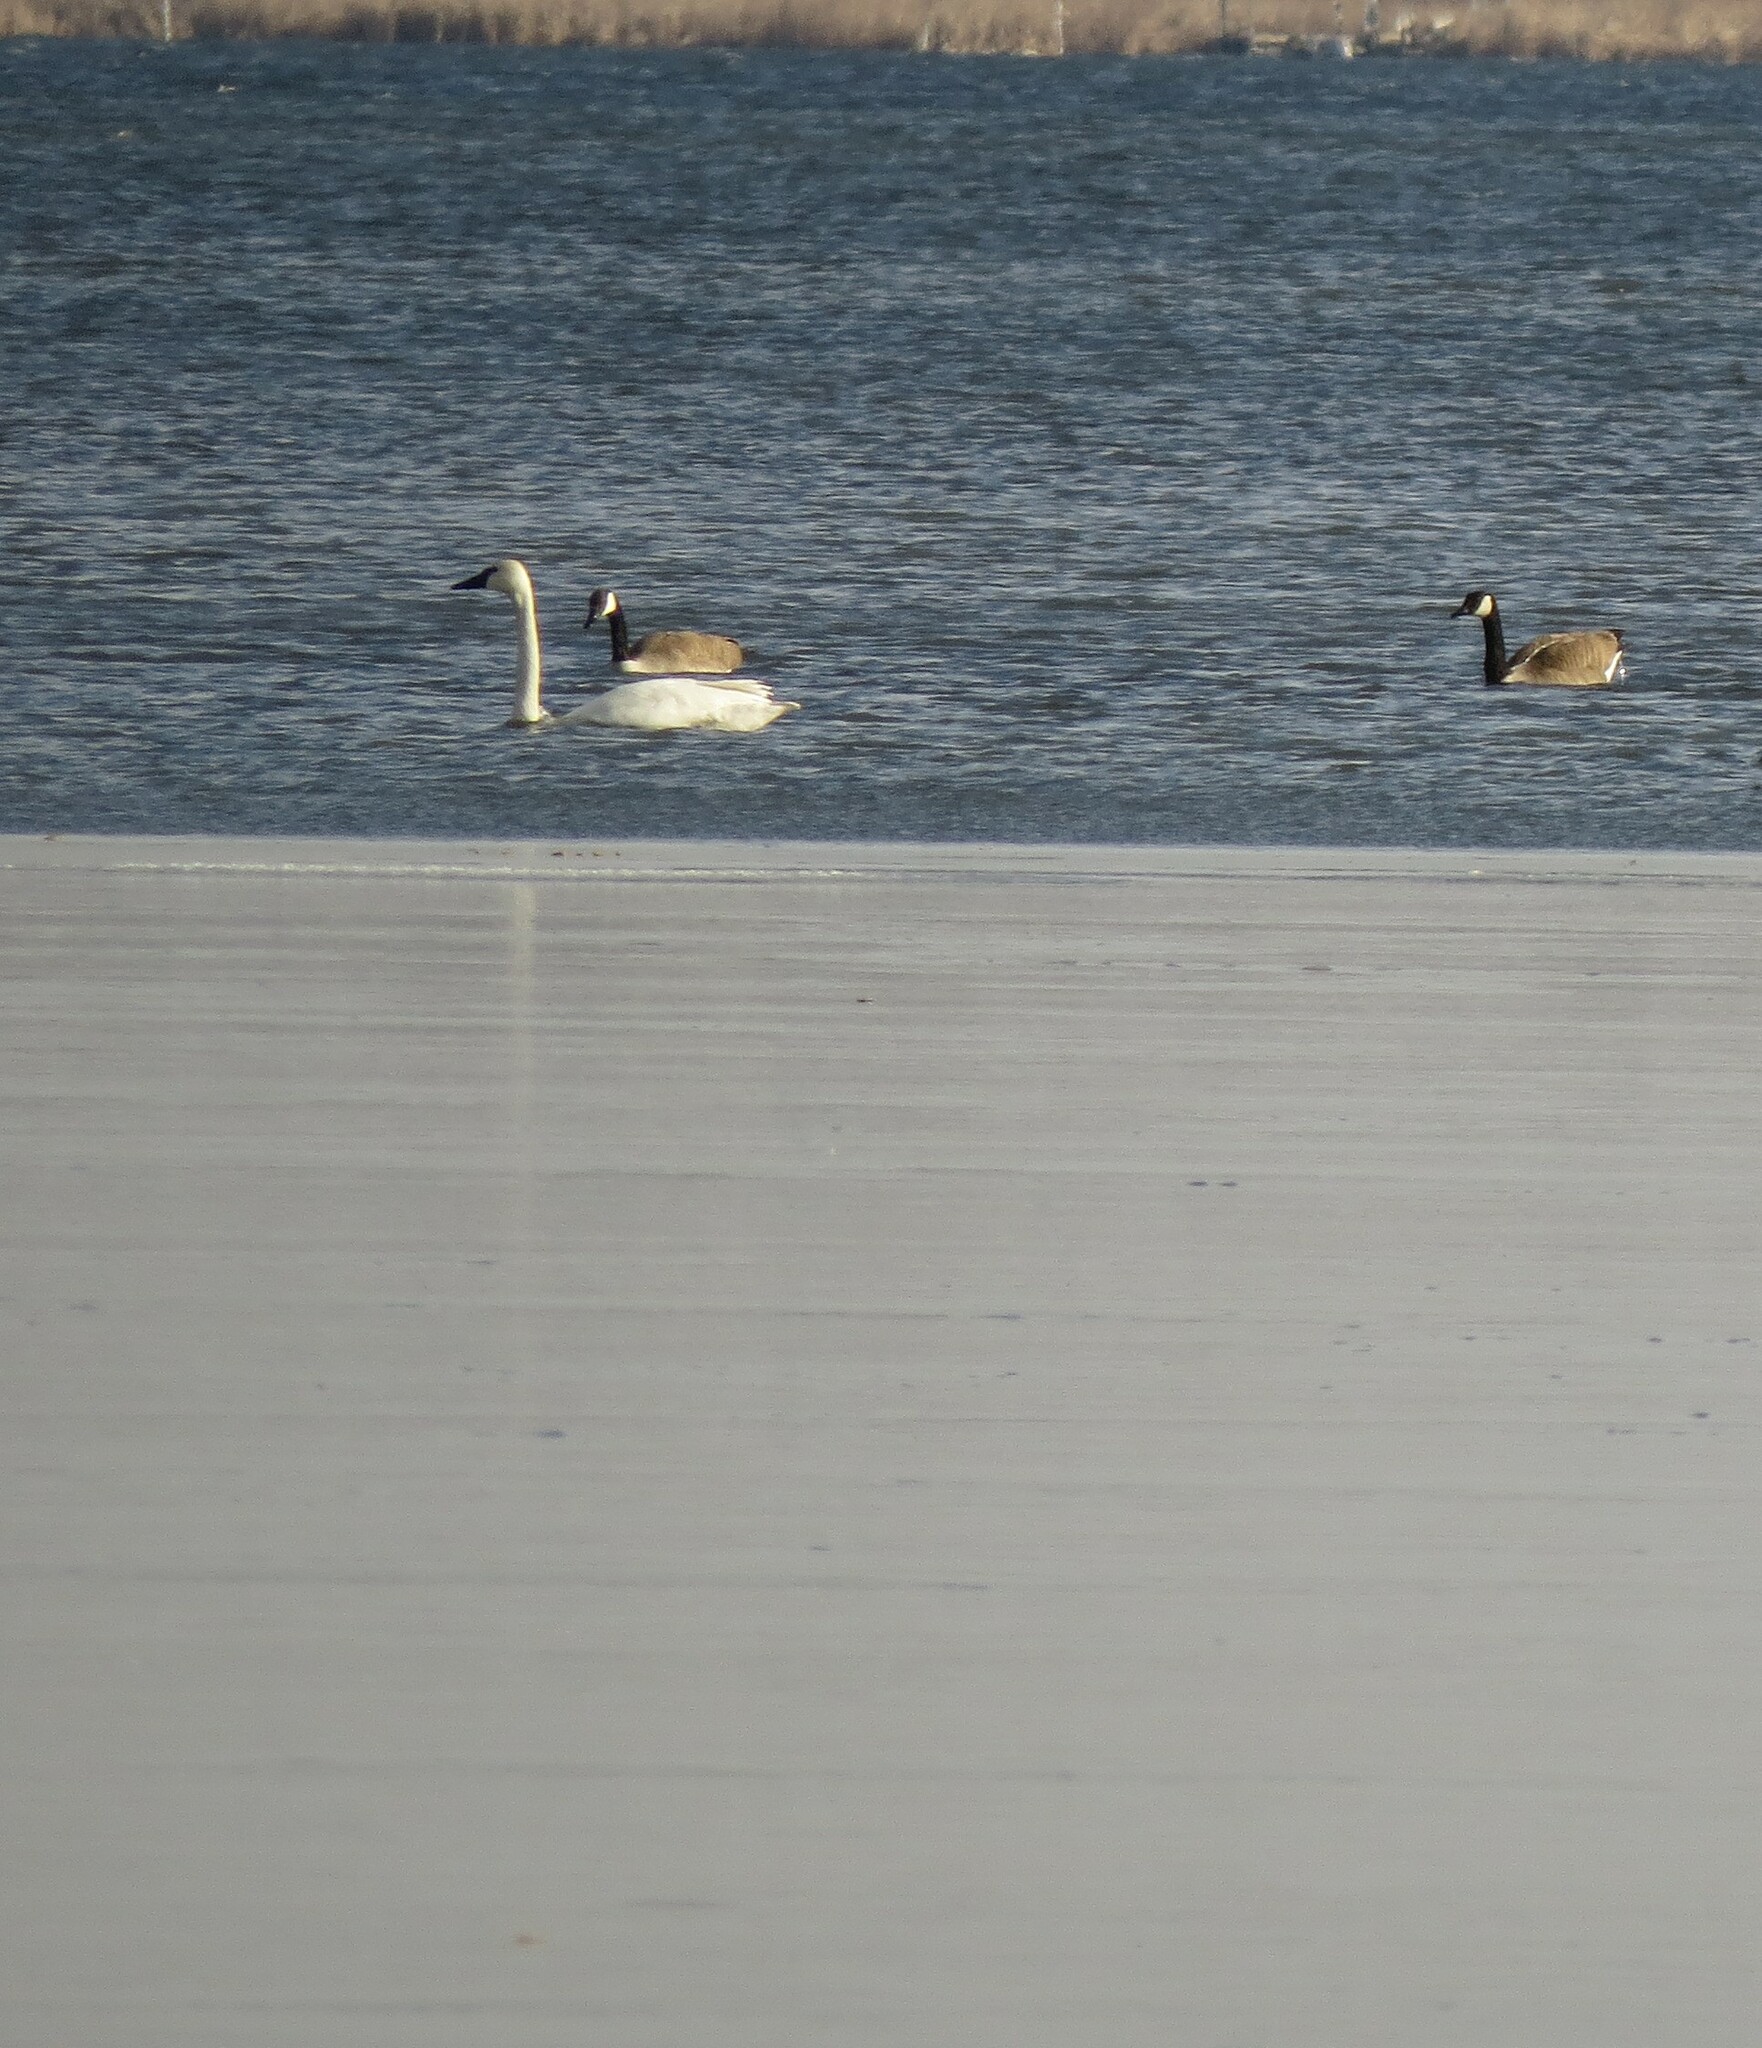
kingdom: Animalia
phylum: Chordata
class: Aves
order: Anseriformes
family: Anatidae
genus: Cygnus
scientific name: Cygnus buccinator
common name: Trumpeter swan
